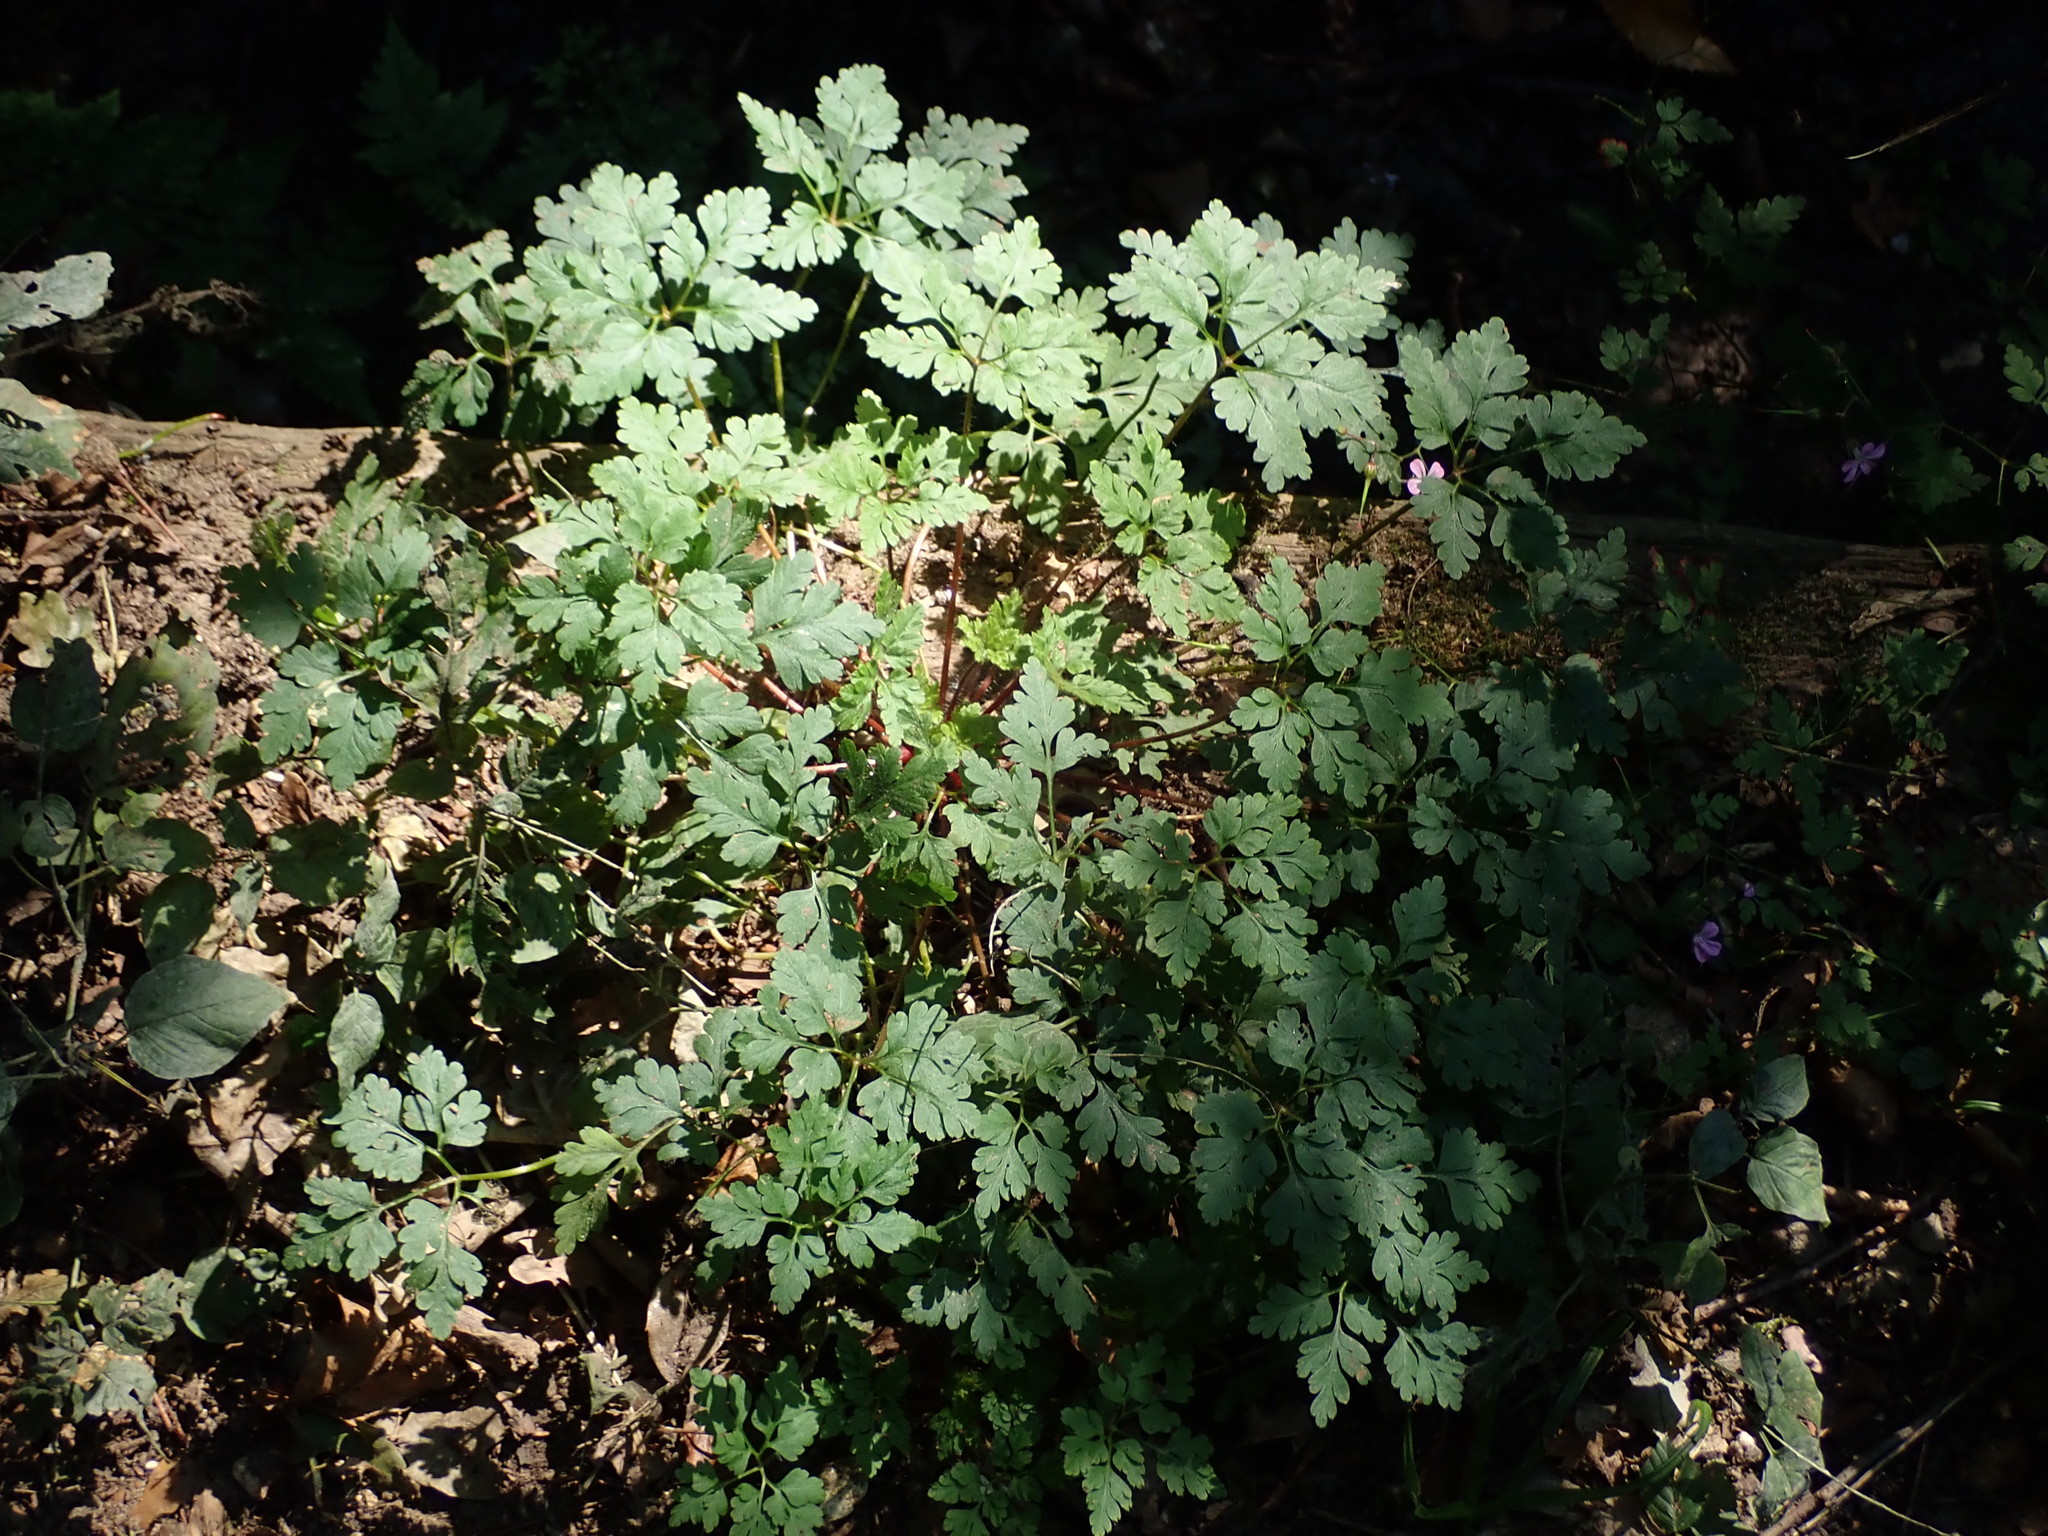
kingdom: Plantae
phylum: Tracheophyta
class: Magnoliopsida
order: Geraniales
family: Geraniaceae
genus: Geranium
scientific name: Geranium robertianum
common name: Herb-robert
